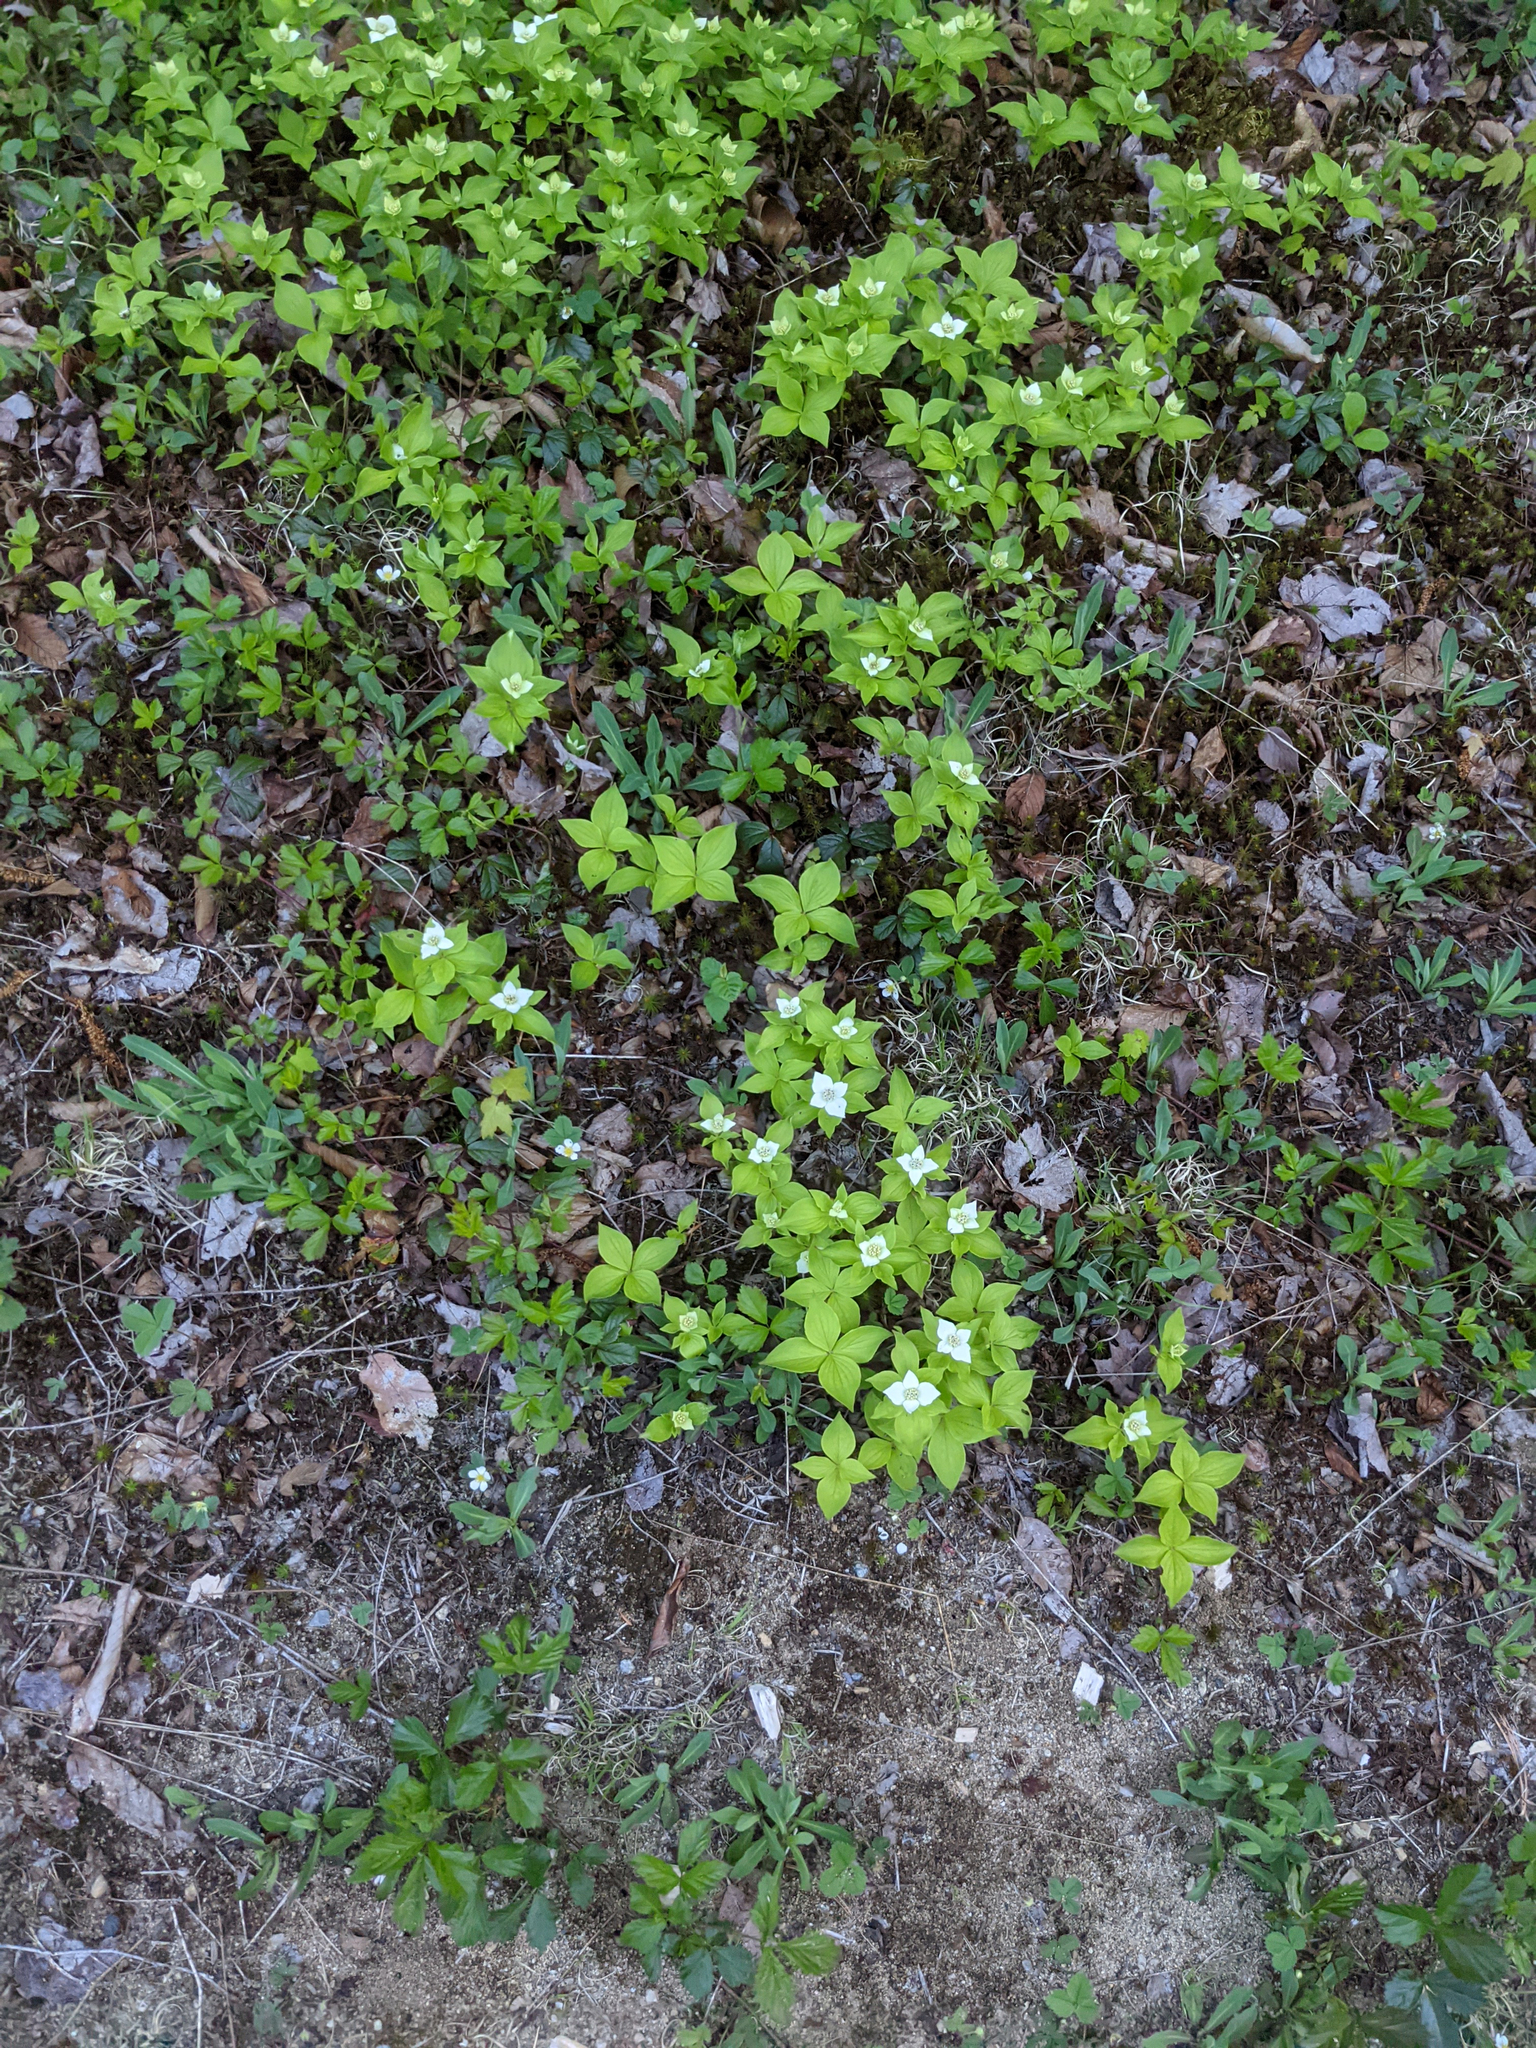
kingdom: Plantae
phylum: Tracheophyta
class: Magnoliopsida
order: Cornales
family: Cornaceae
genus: Cornus
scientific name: Cornus canadensis
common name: Creeping dogwood
